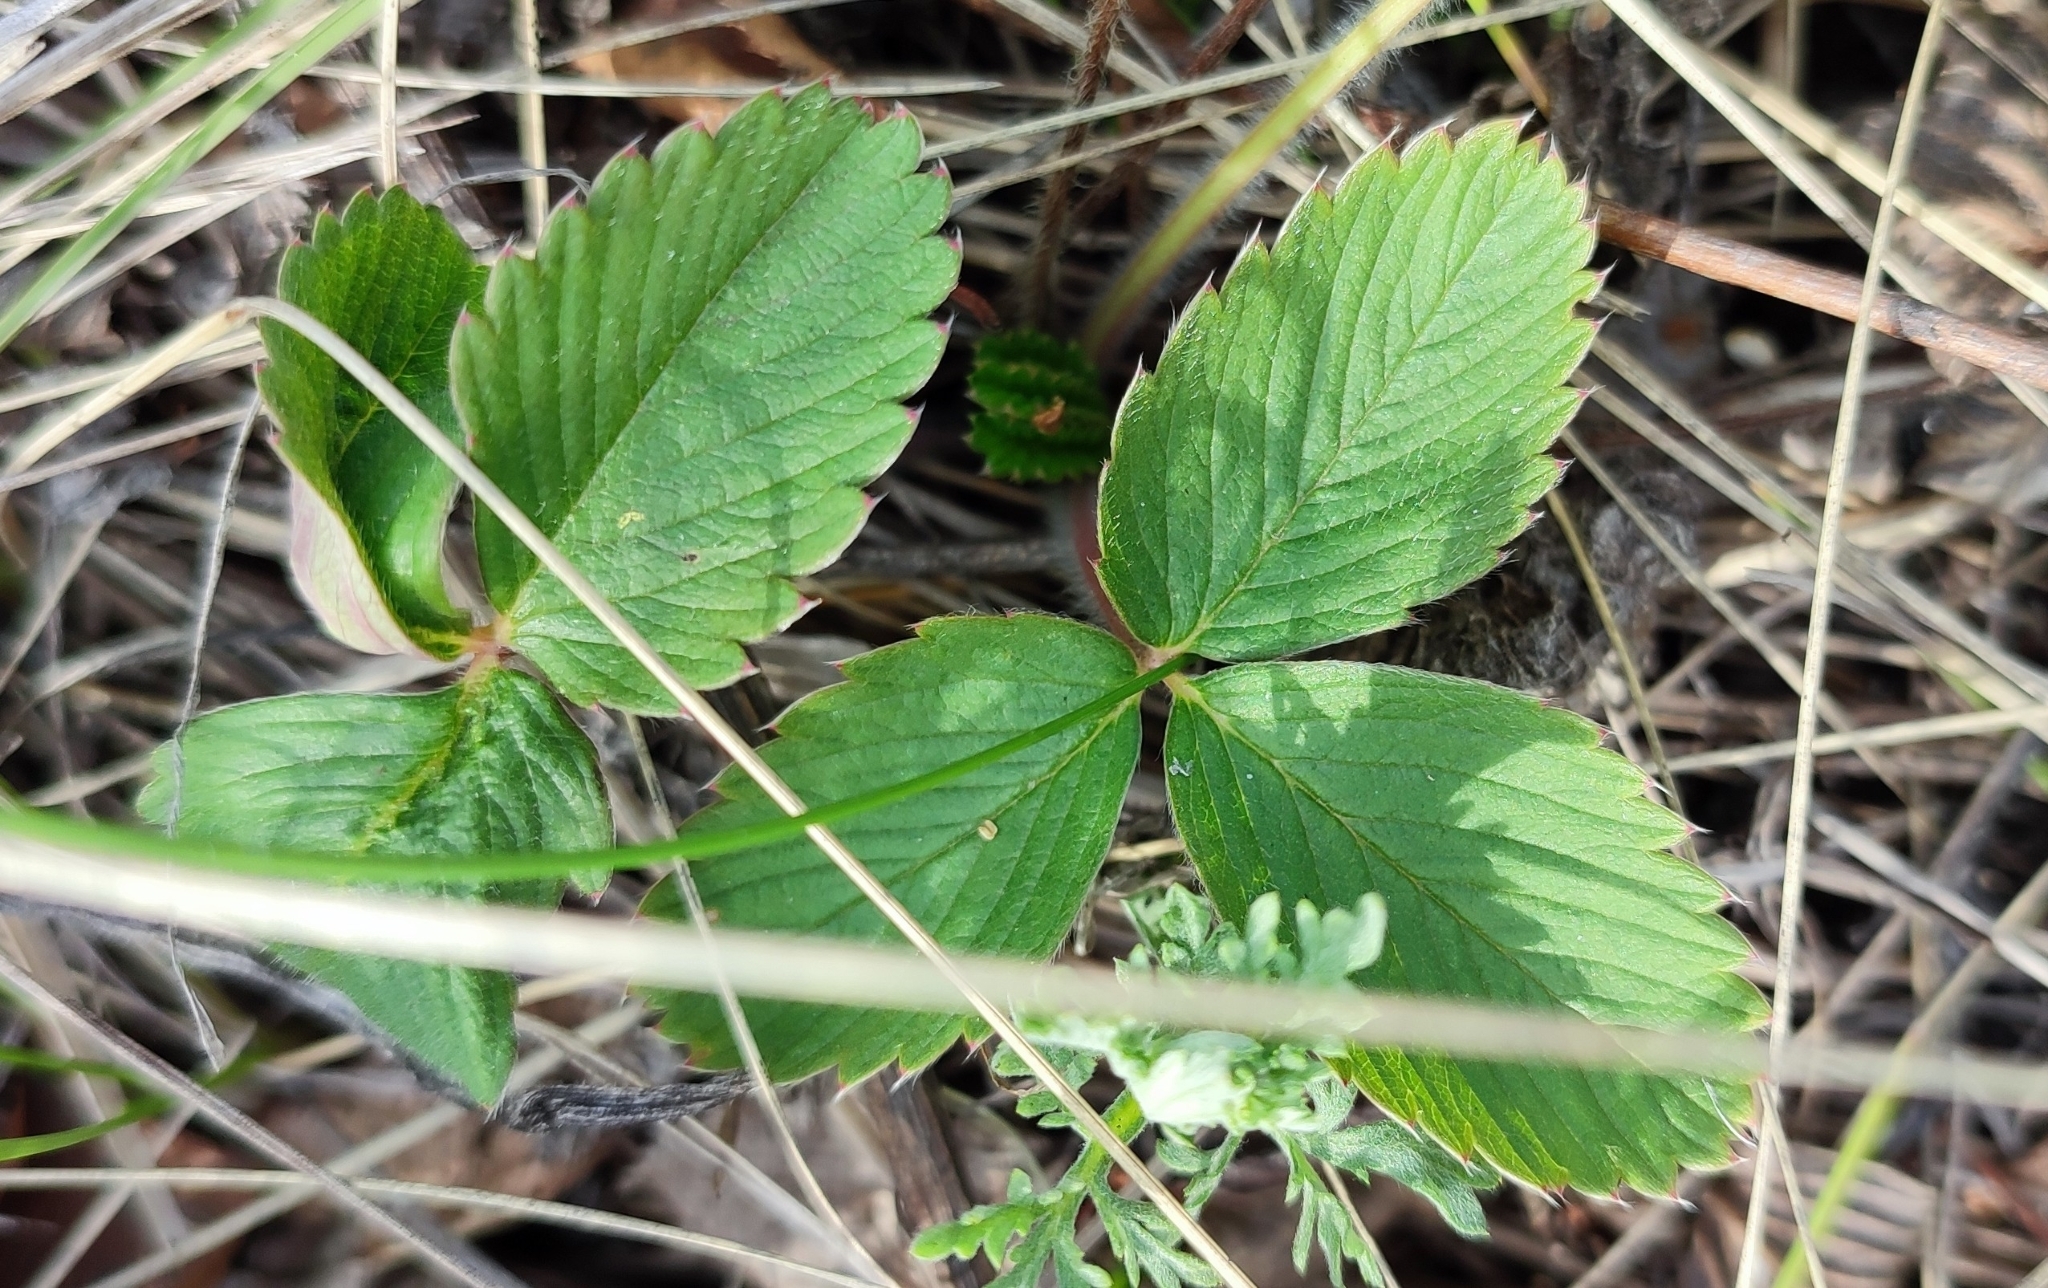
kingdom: Plantae
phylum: Tracheophyta
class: Magnoliopsida
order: Rosales
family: Rosaceae
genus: Fragaria
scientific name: Fragaria viridis
